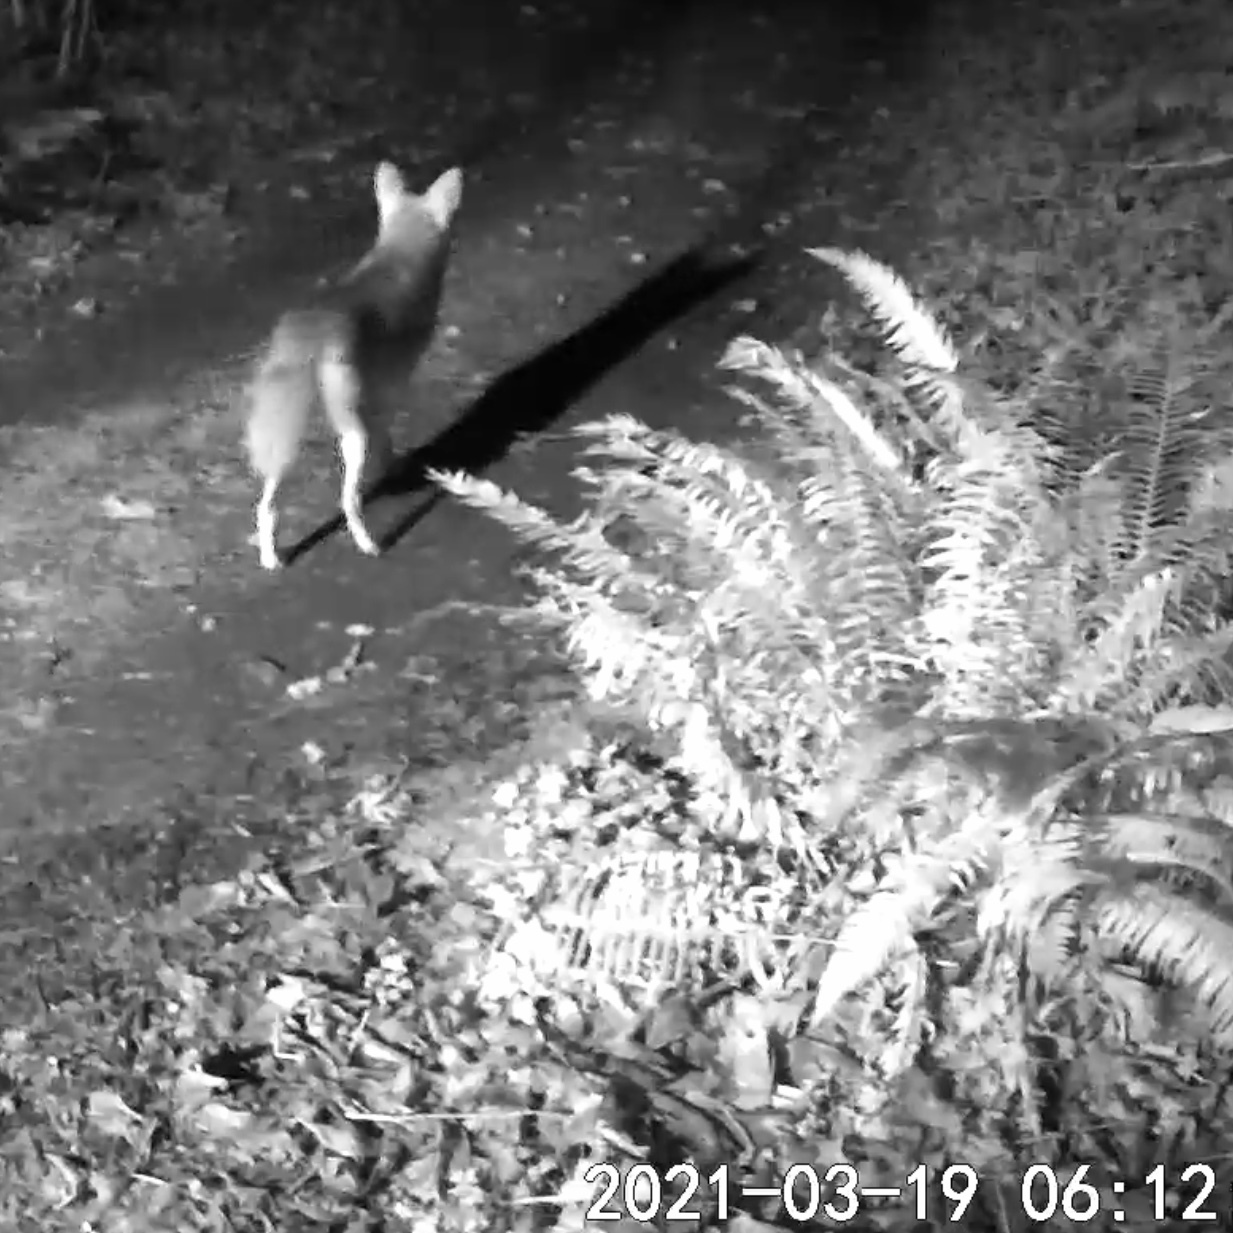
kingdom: Animalia
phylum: Chordata
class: Mammalia
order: Carnivora
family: Canidae
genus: Canis
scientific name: Canis latrans
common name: Coyote
